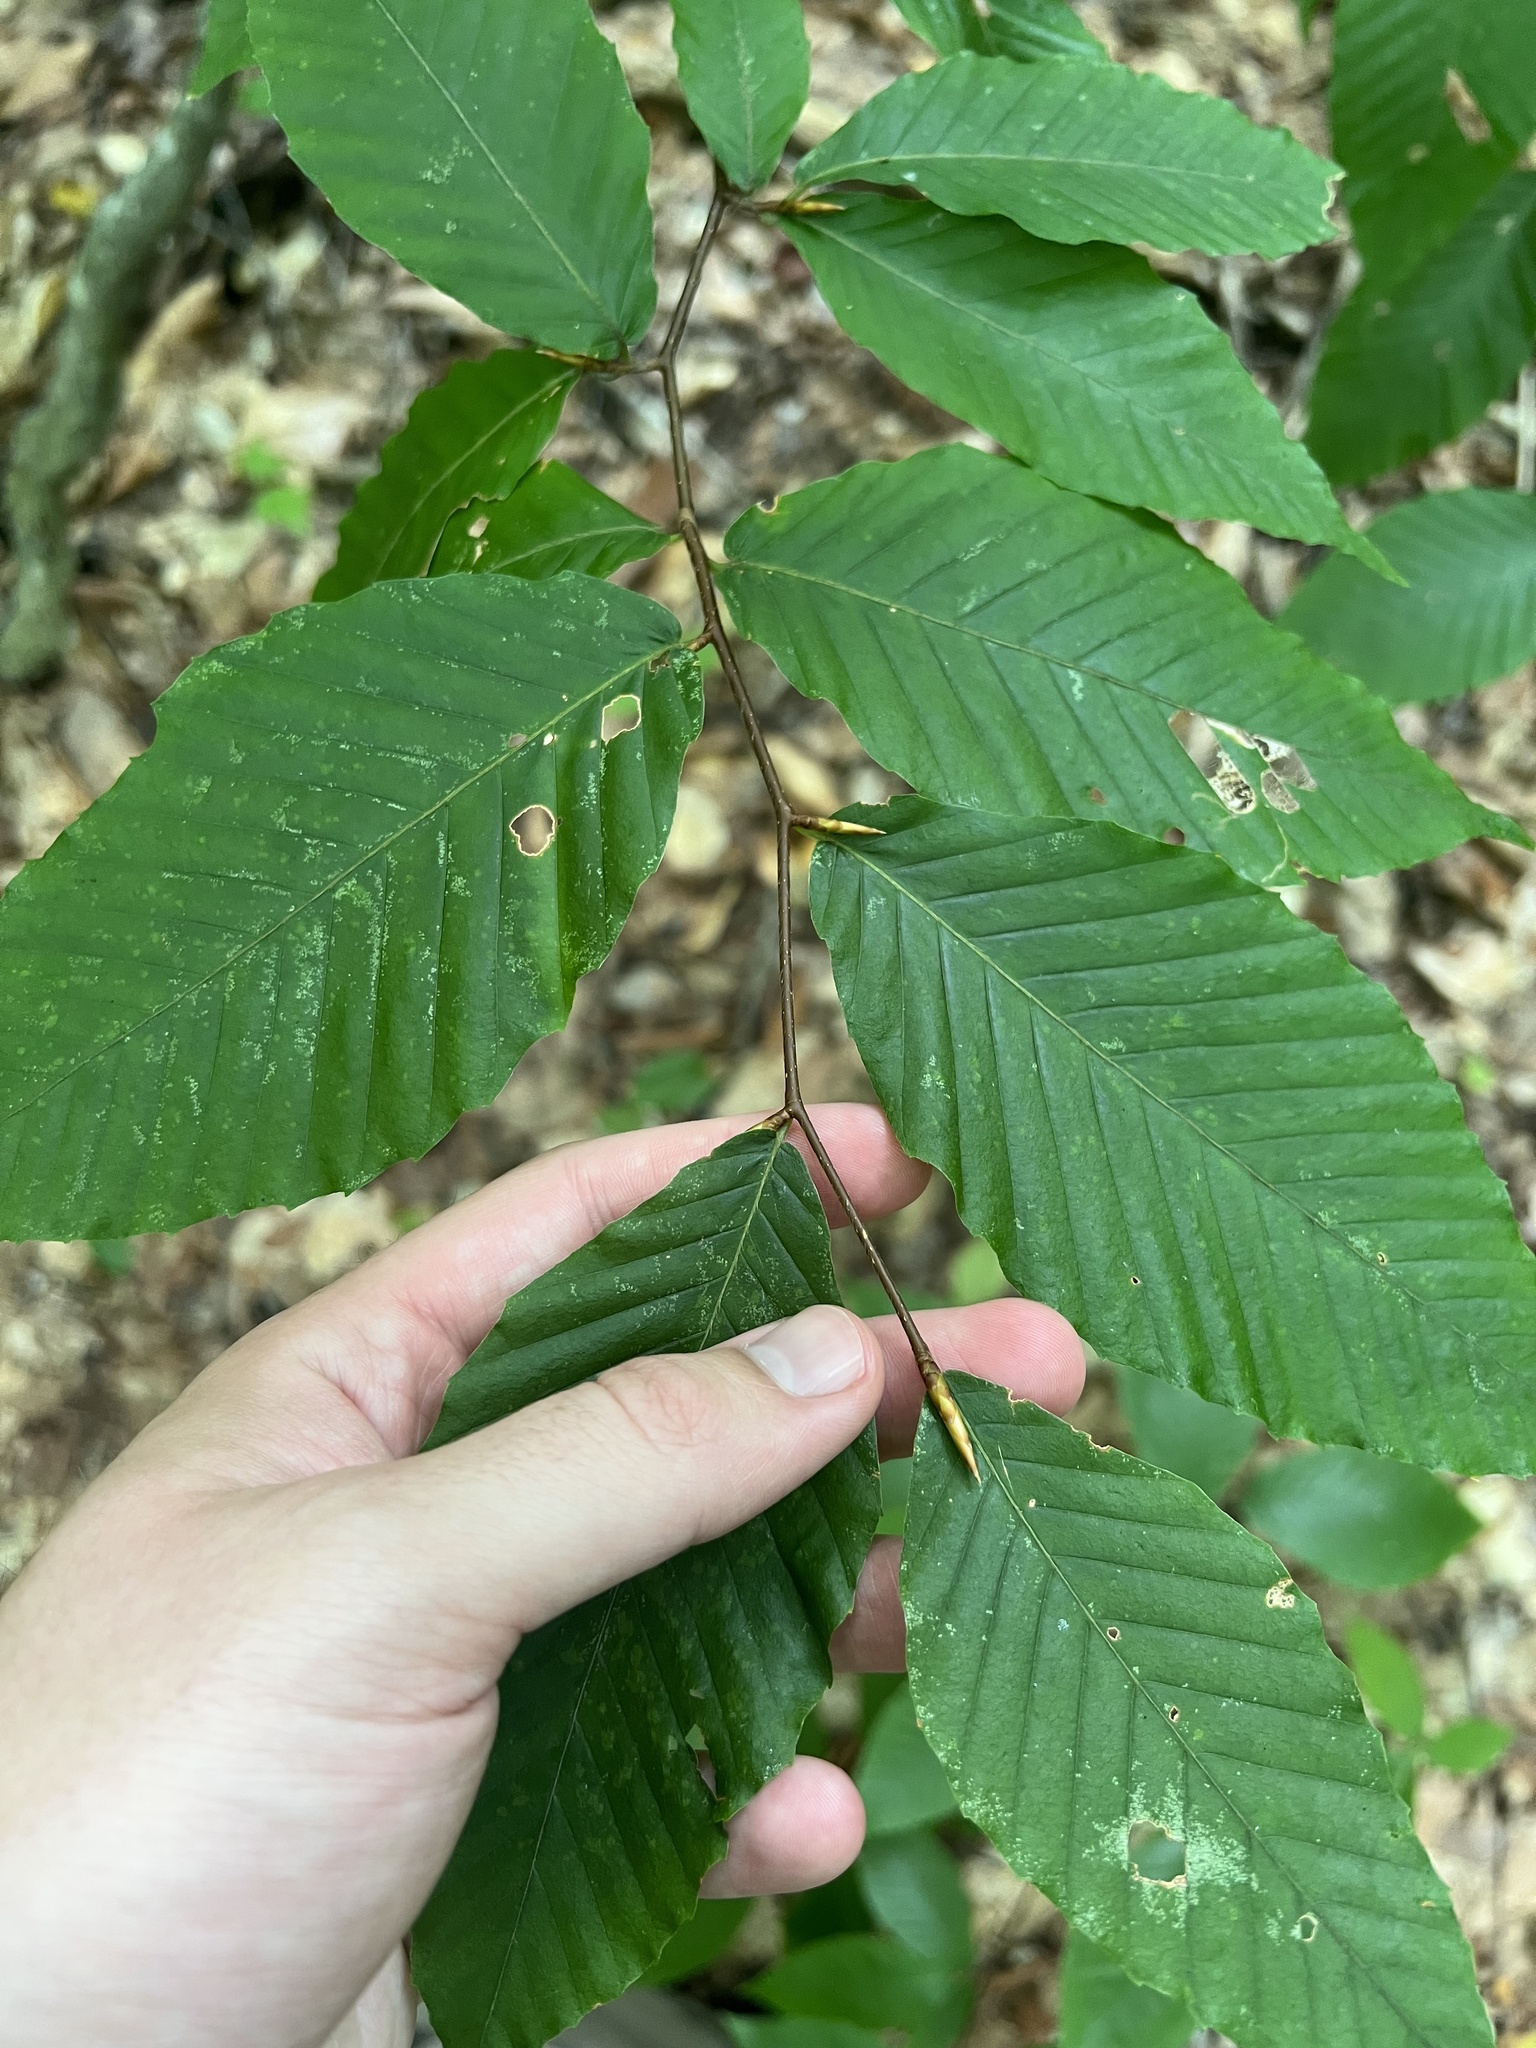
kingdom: Plantae
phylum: Tracheophyta
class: Magnoliopsida
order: Fagales
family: Fagaceae
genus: Fagus
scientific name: Fagus grandifolia
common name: American beech
